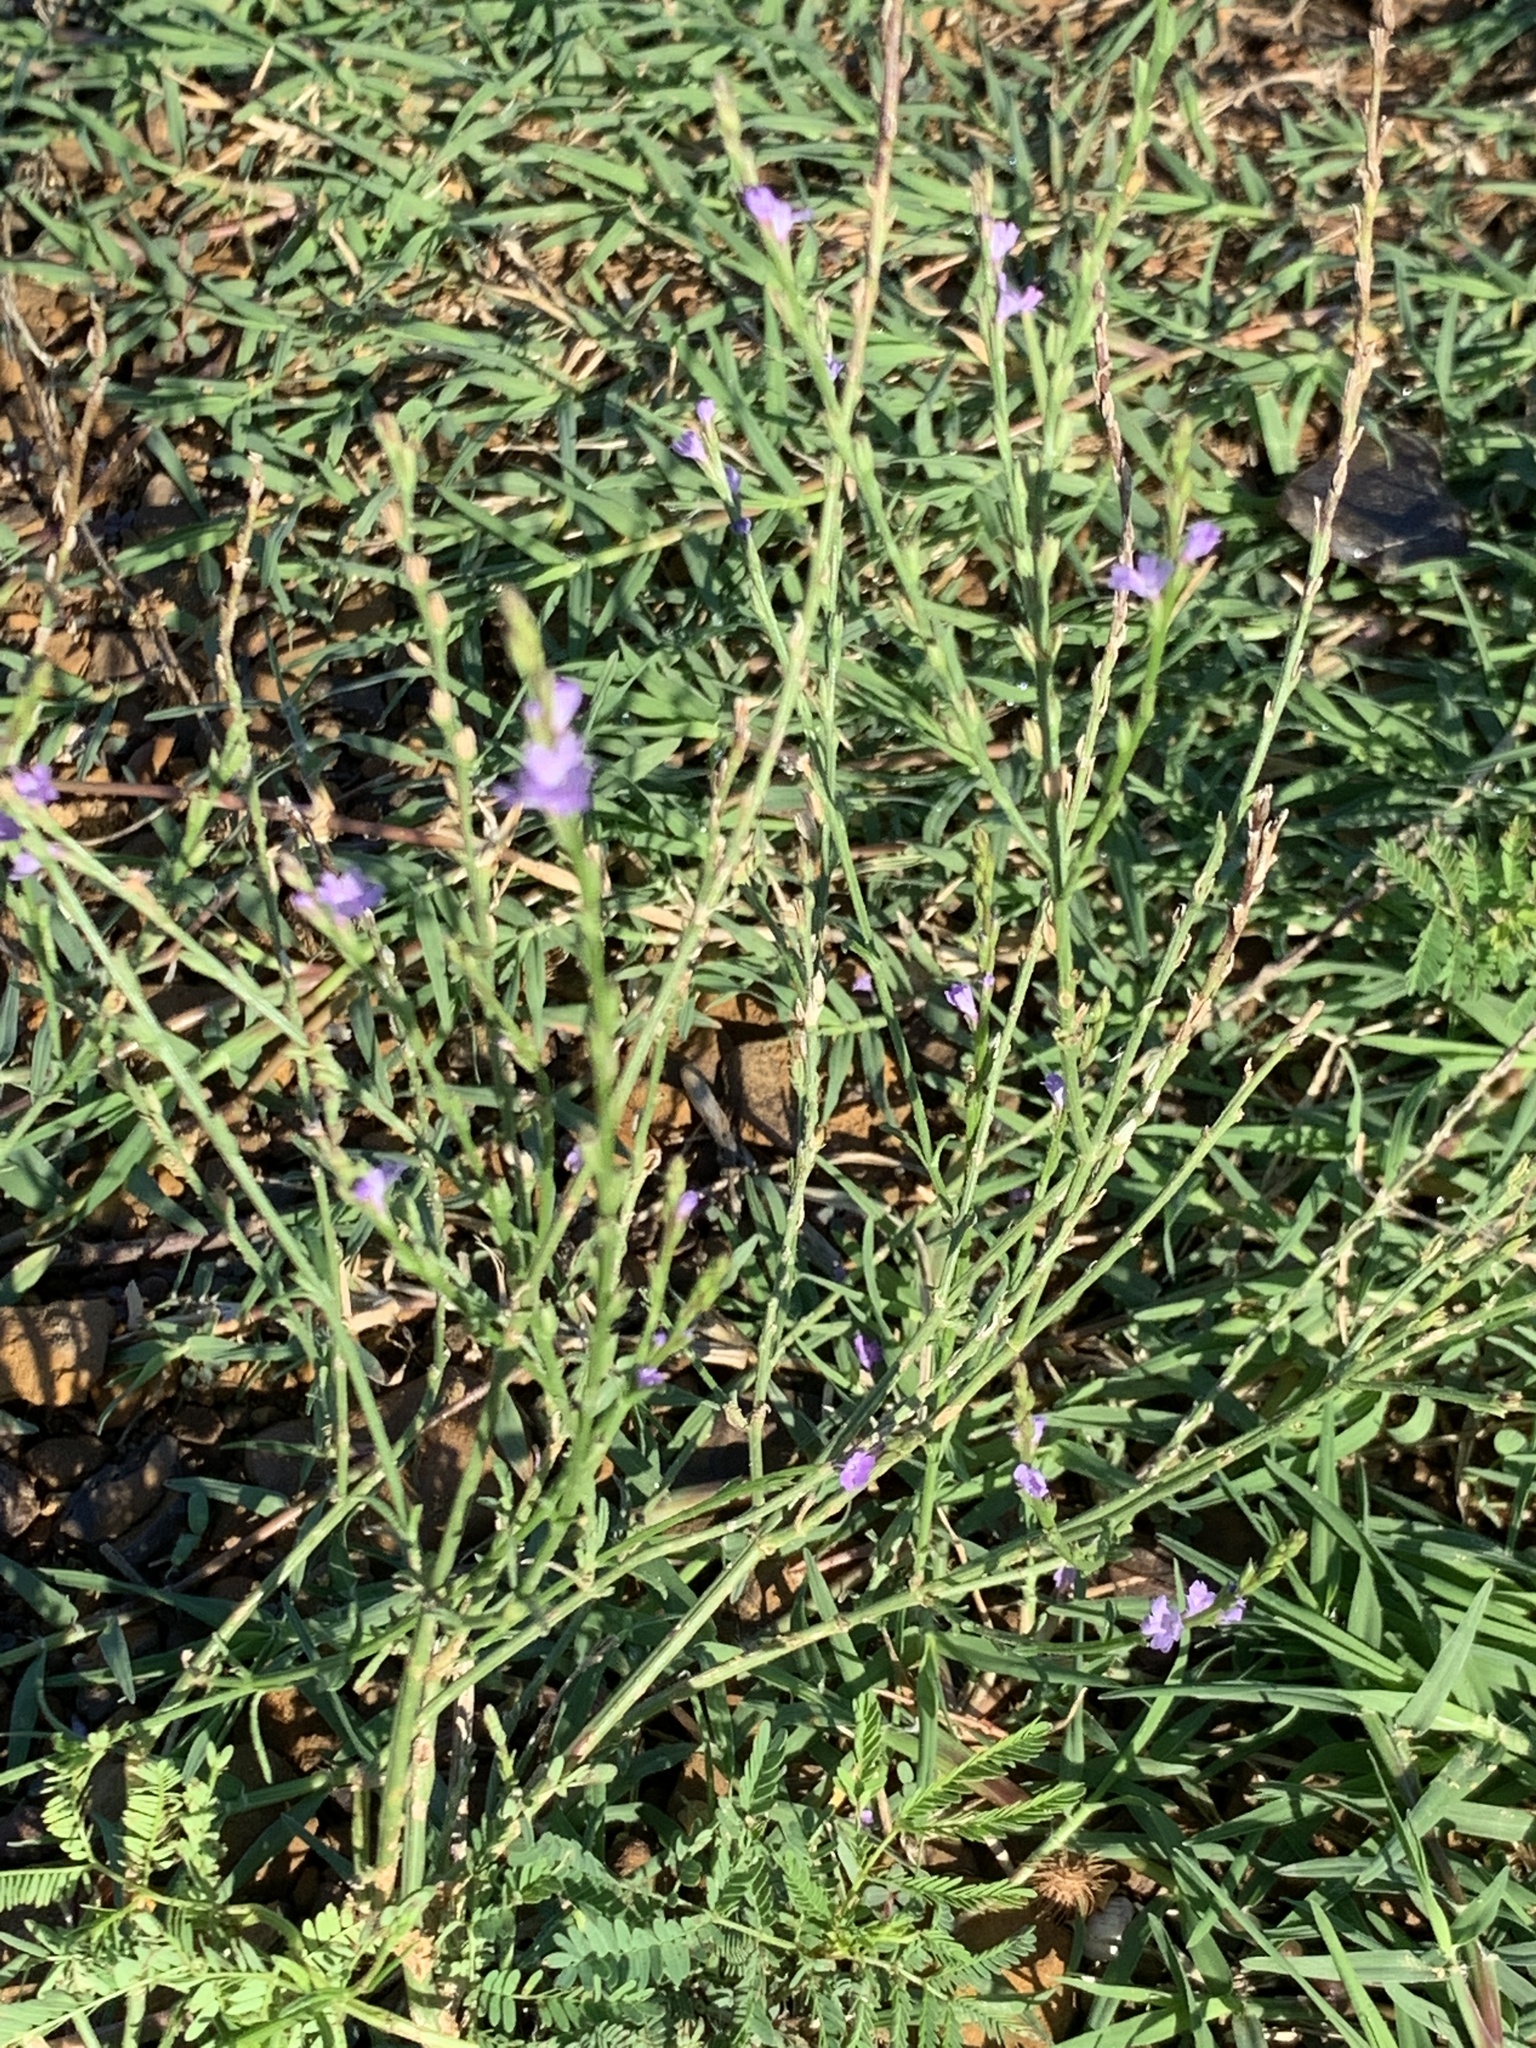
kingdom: Plantae
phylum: Tracheophyta
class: Magnoliopsida
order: Lamiales
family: Verbenaceae
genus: Verbena
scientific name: Verbena halei
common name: Texas vervain
